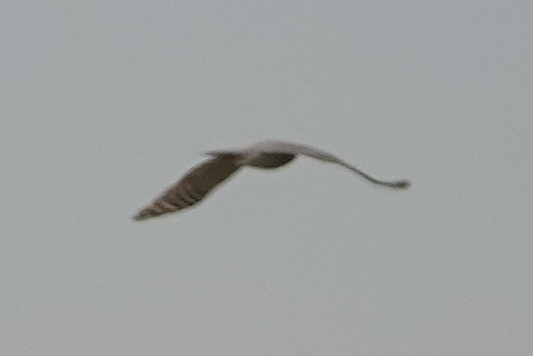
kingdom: Animalia
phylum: Chordata
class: Aves
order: Accipitriformes
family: Accipitridae
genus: Accipiter
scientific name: Accipiter nisus
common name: Eurasian sparrowhawk
